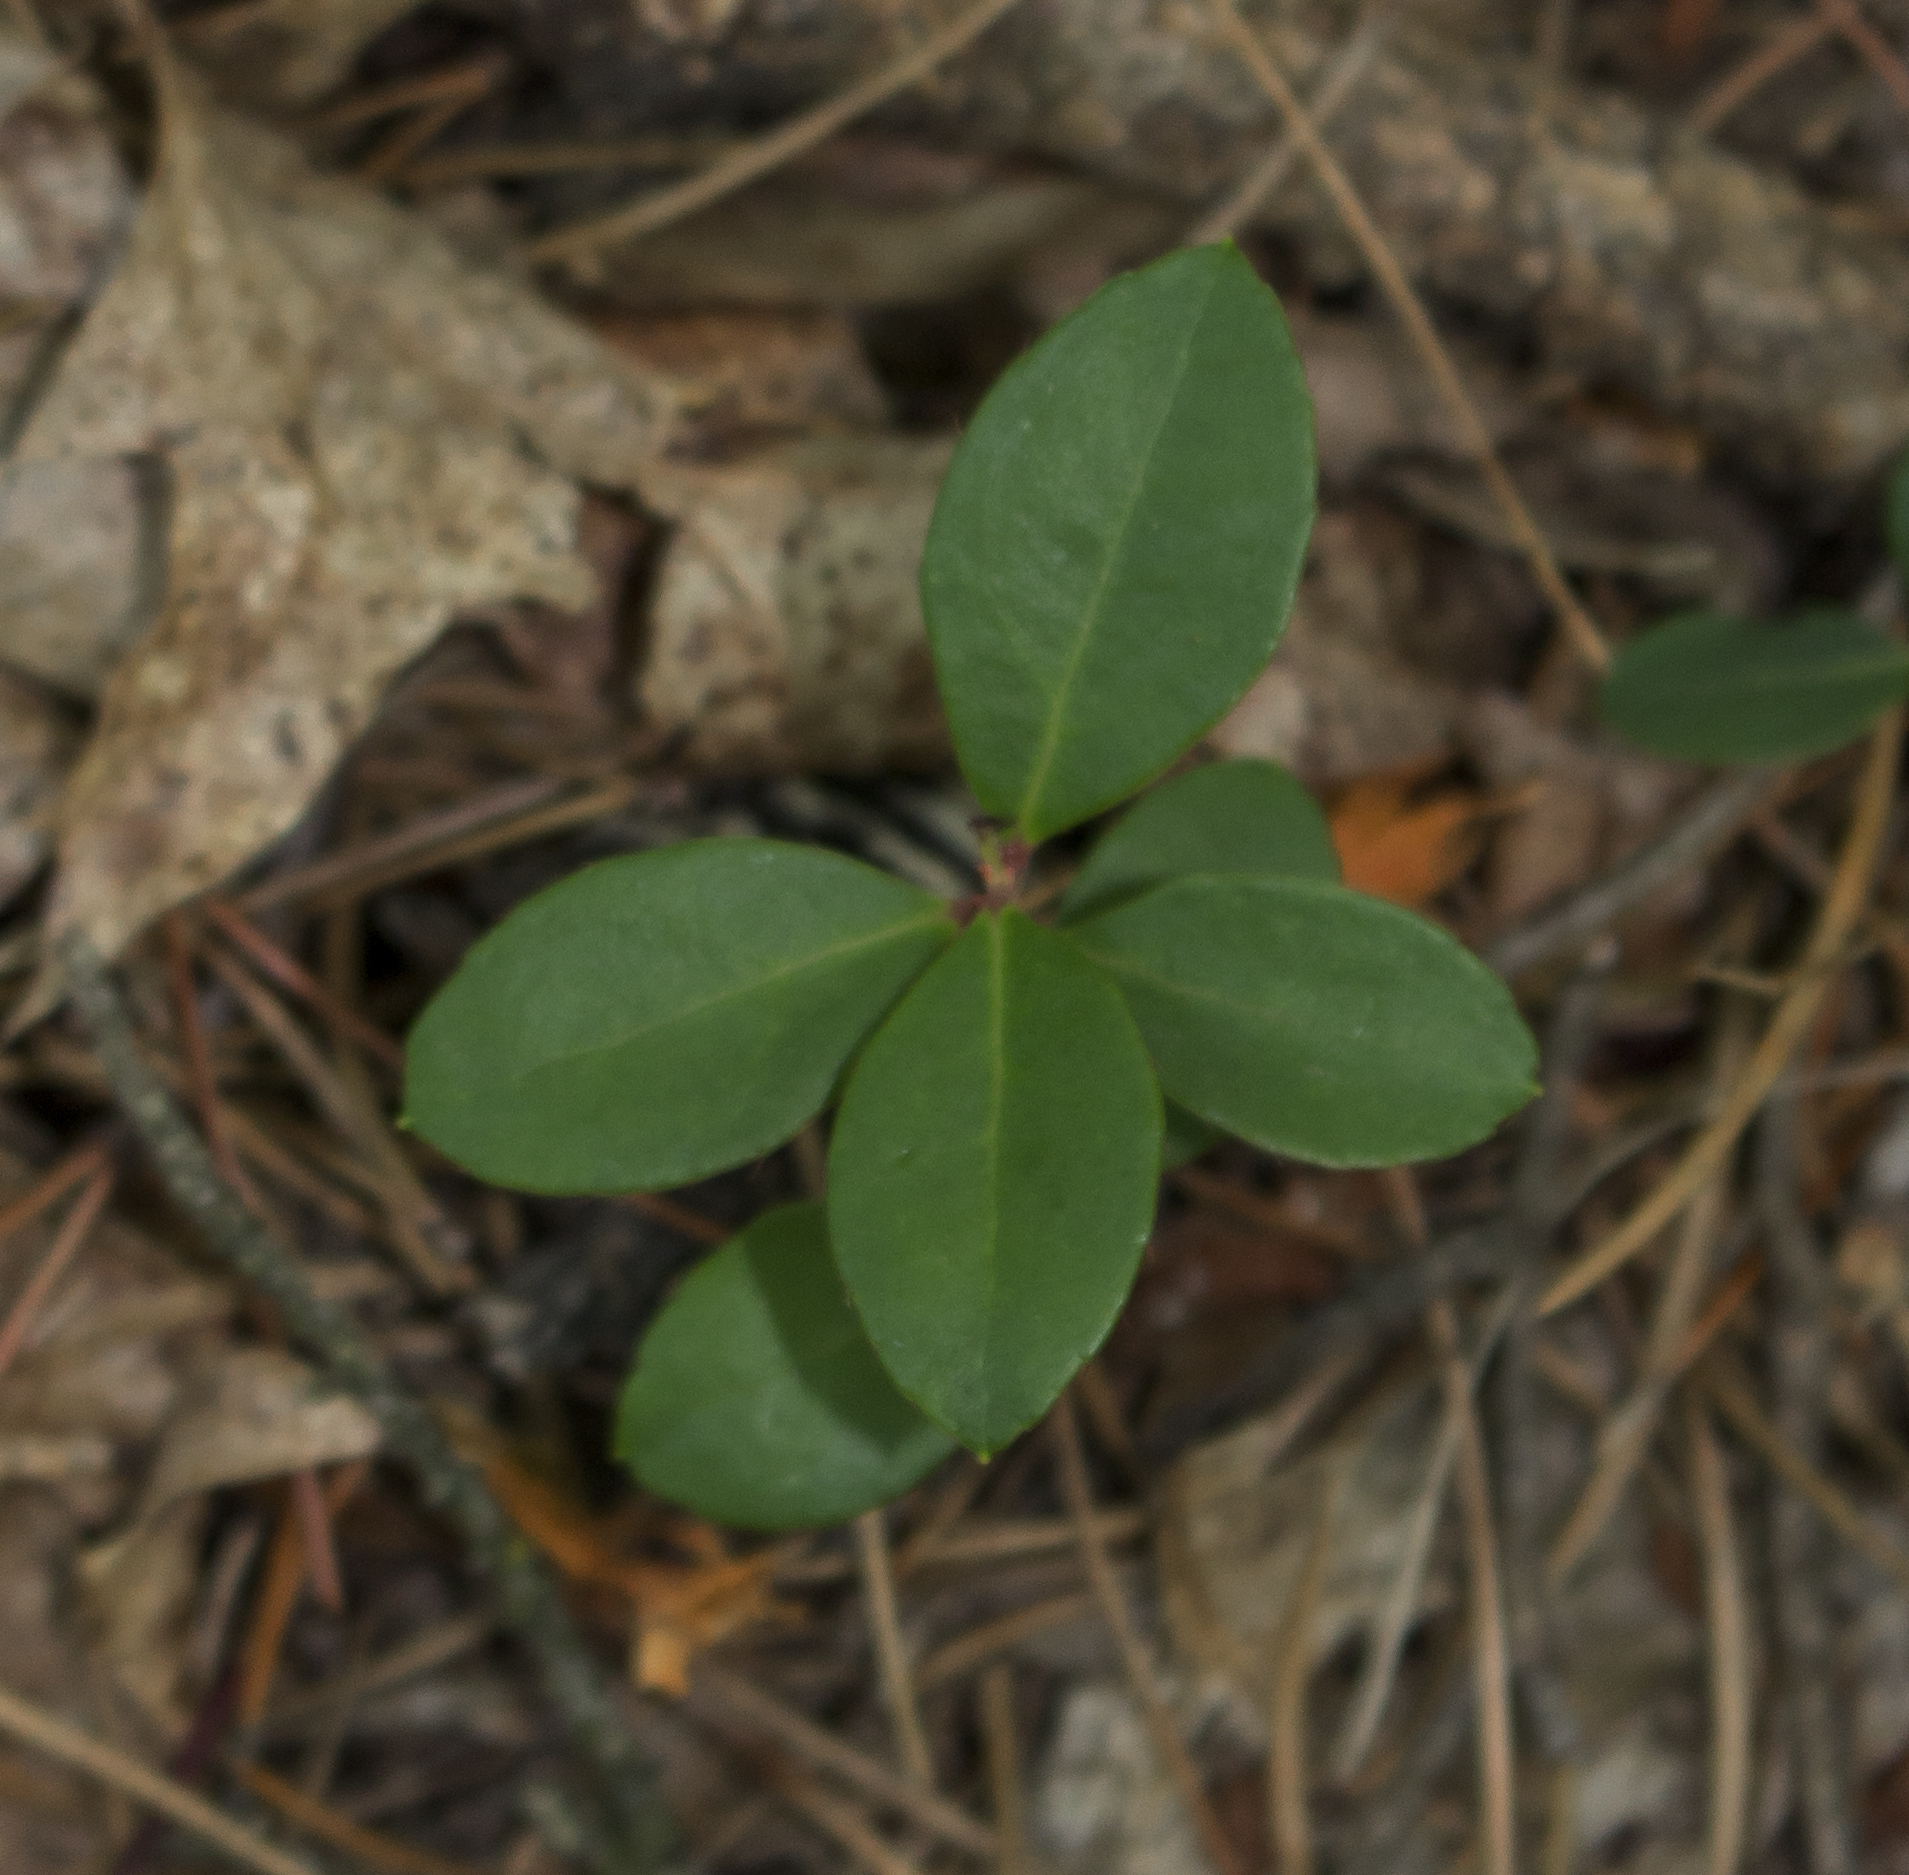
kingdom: Plantae
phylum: Tracheophyta
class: Magnoliopsida
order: Ericales
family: Ericaceae
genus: Gaultheria
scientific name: Gaultheria procumbens
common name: Checkerberry
